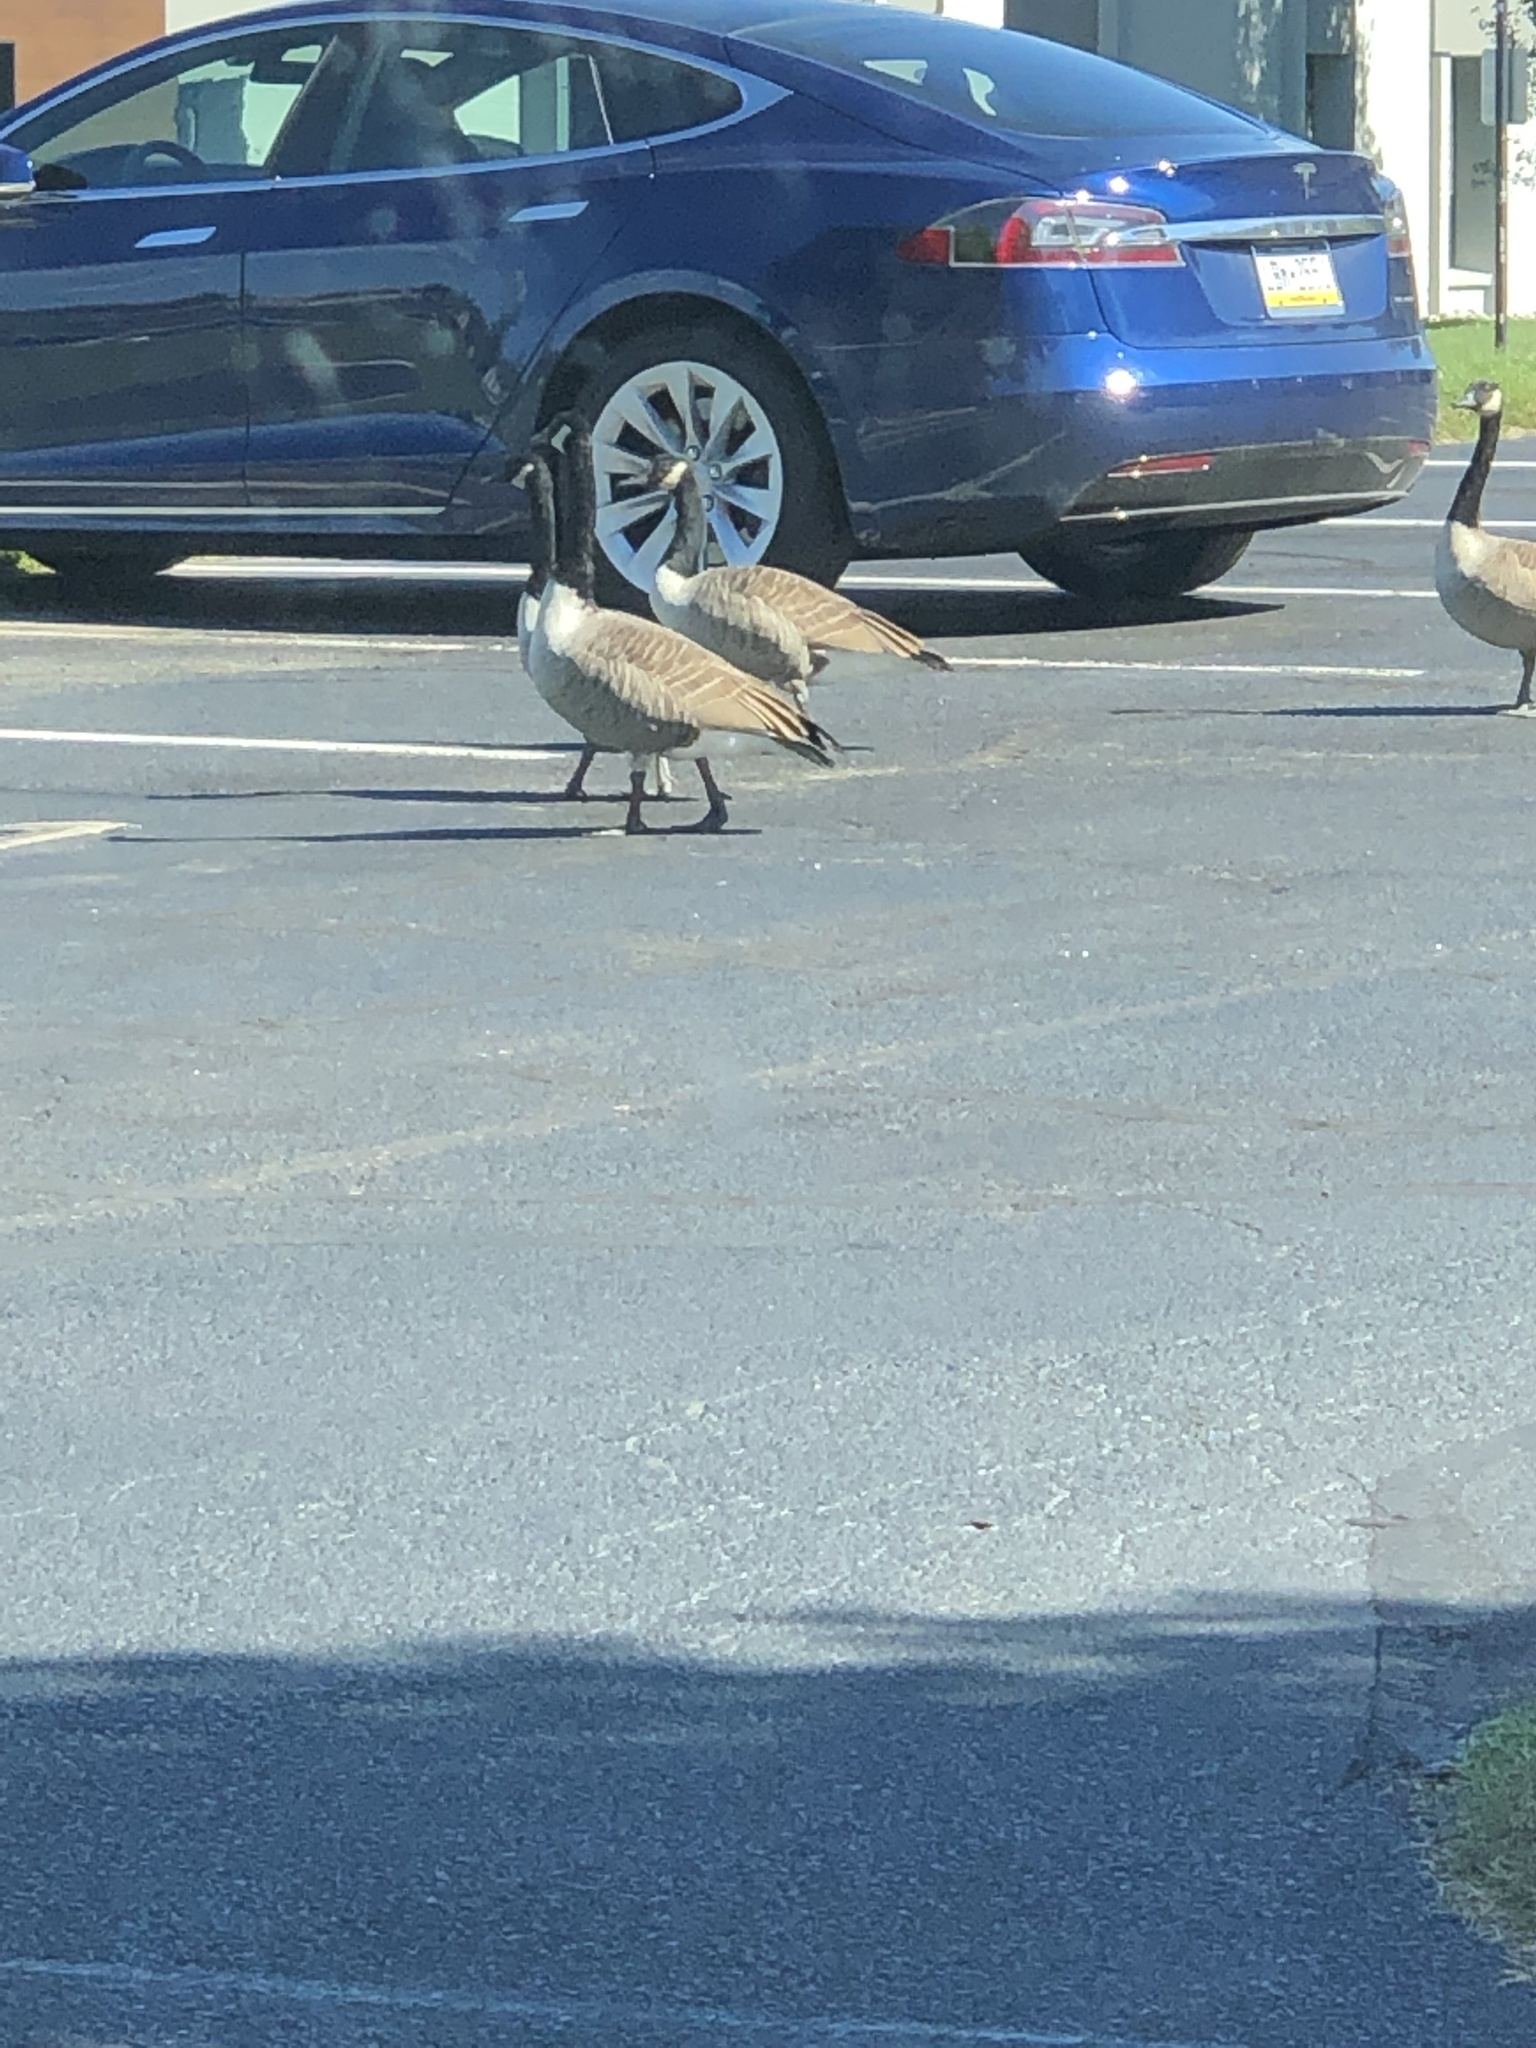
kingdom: Animalia
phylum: Chordata
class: Aves
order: Anseriformes
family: Anatidae
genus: Branta
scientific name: Branta canadensis
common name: Canada goose
